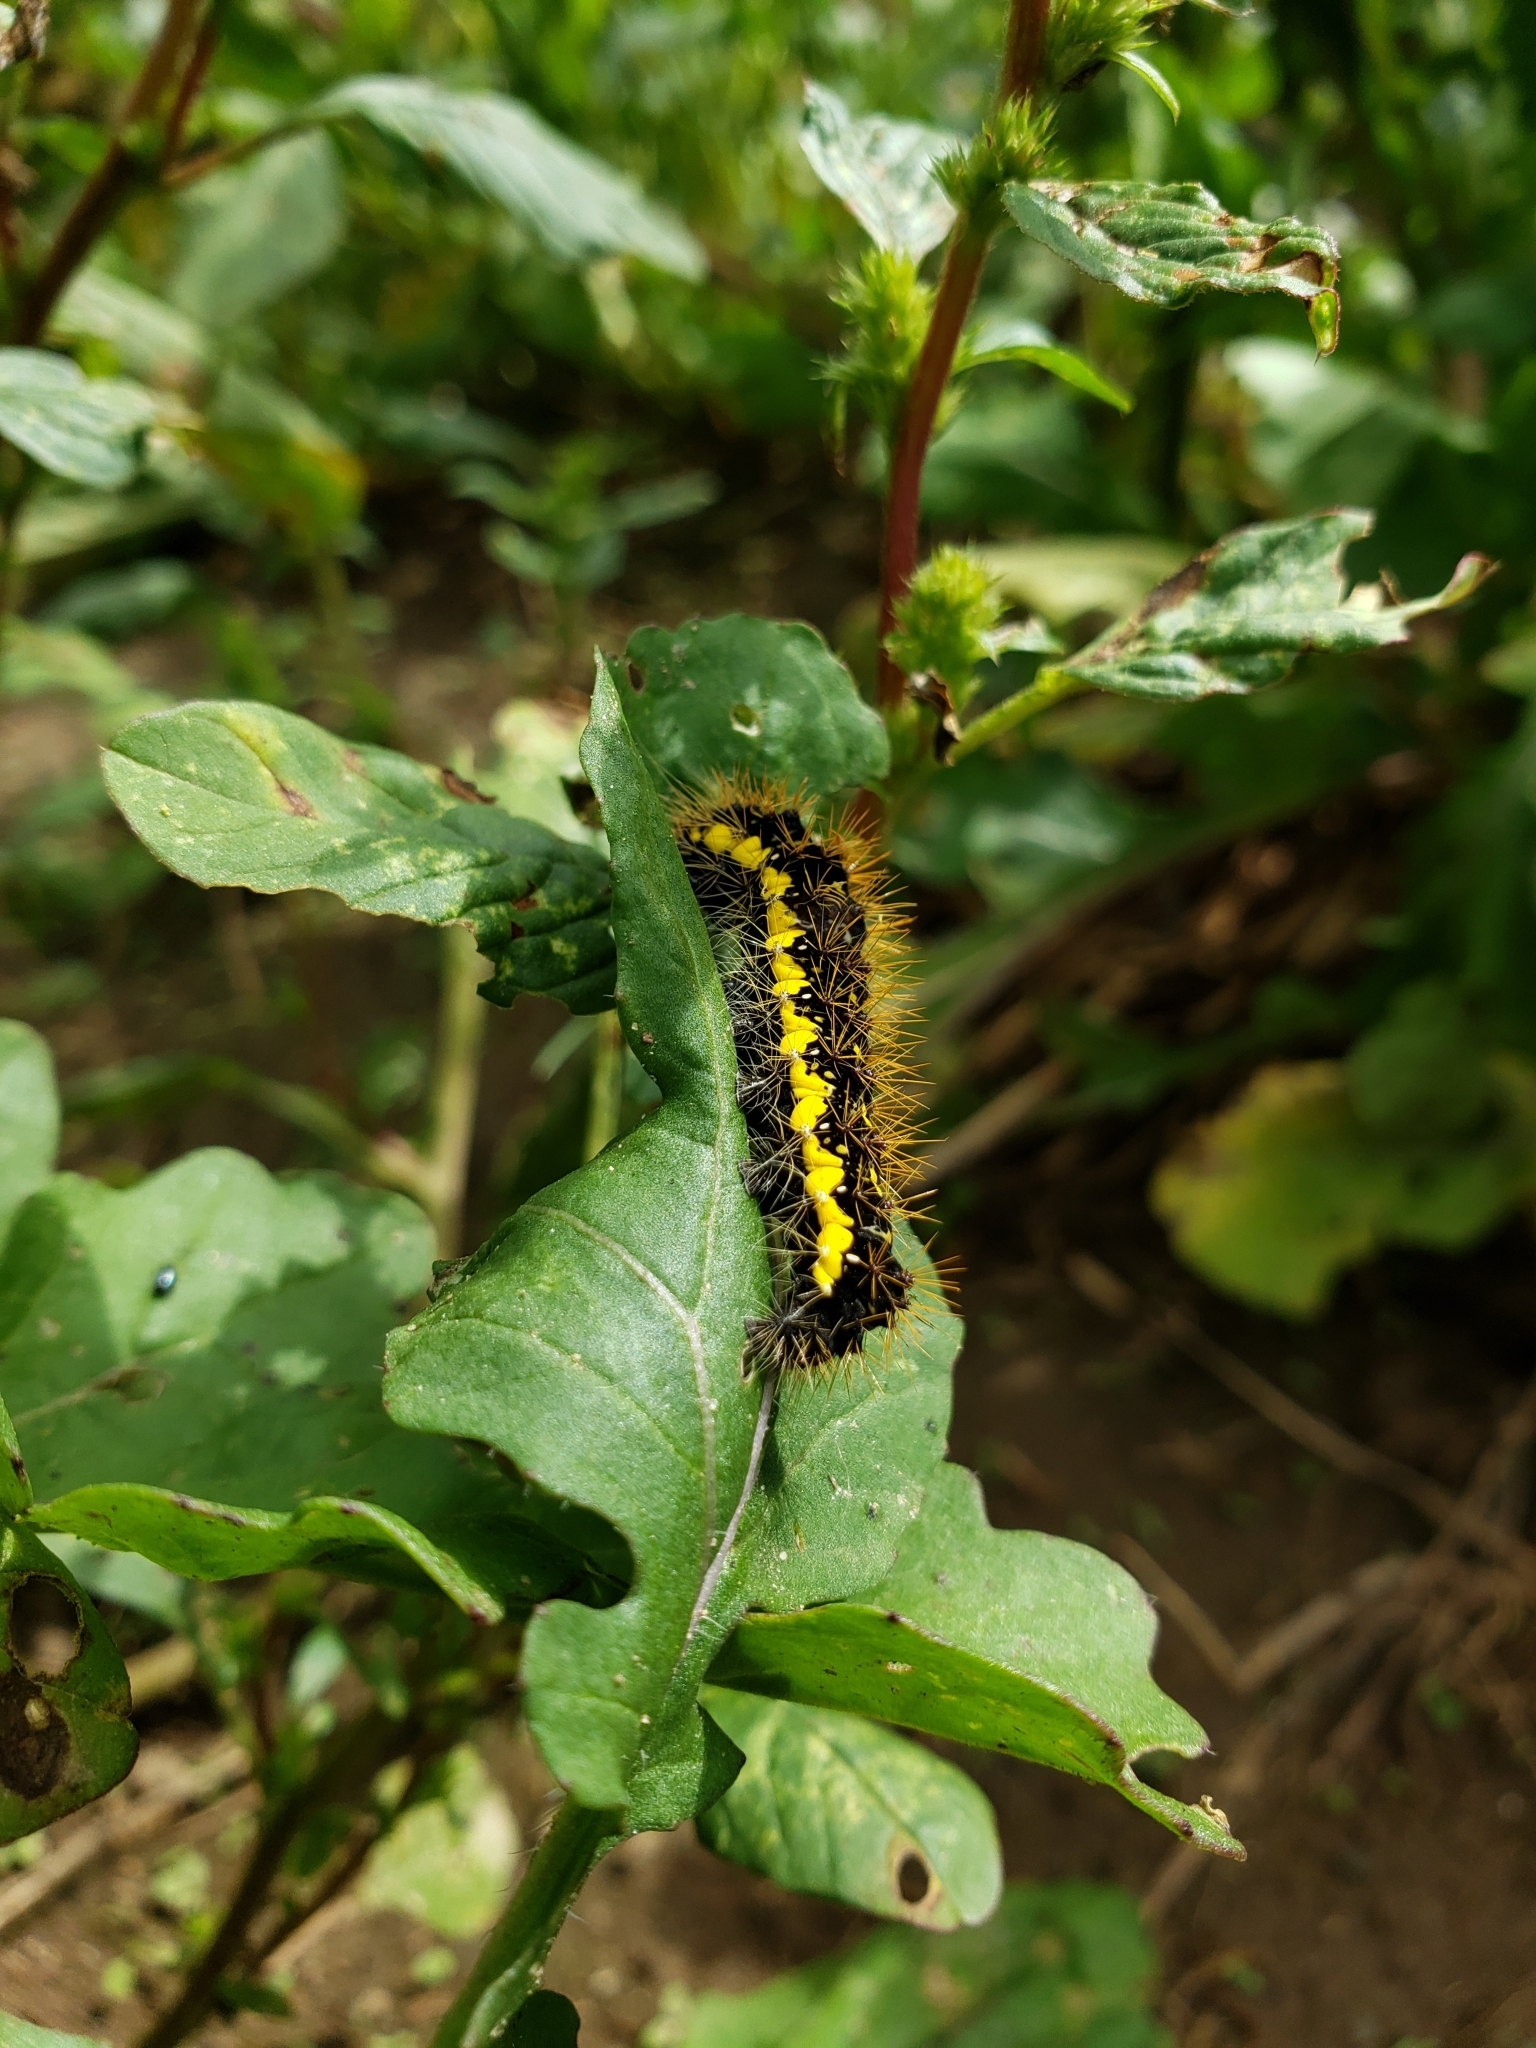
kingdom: Animalia
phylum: Arthropoda
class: Insecta
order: Lepidoptera
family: Noctuidae
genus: Acronicta
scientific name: Acronicta oblinita
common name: Smeared dagger
